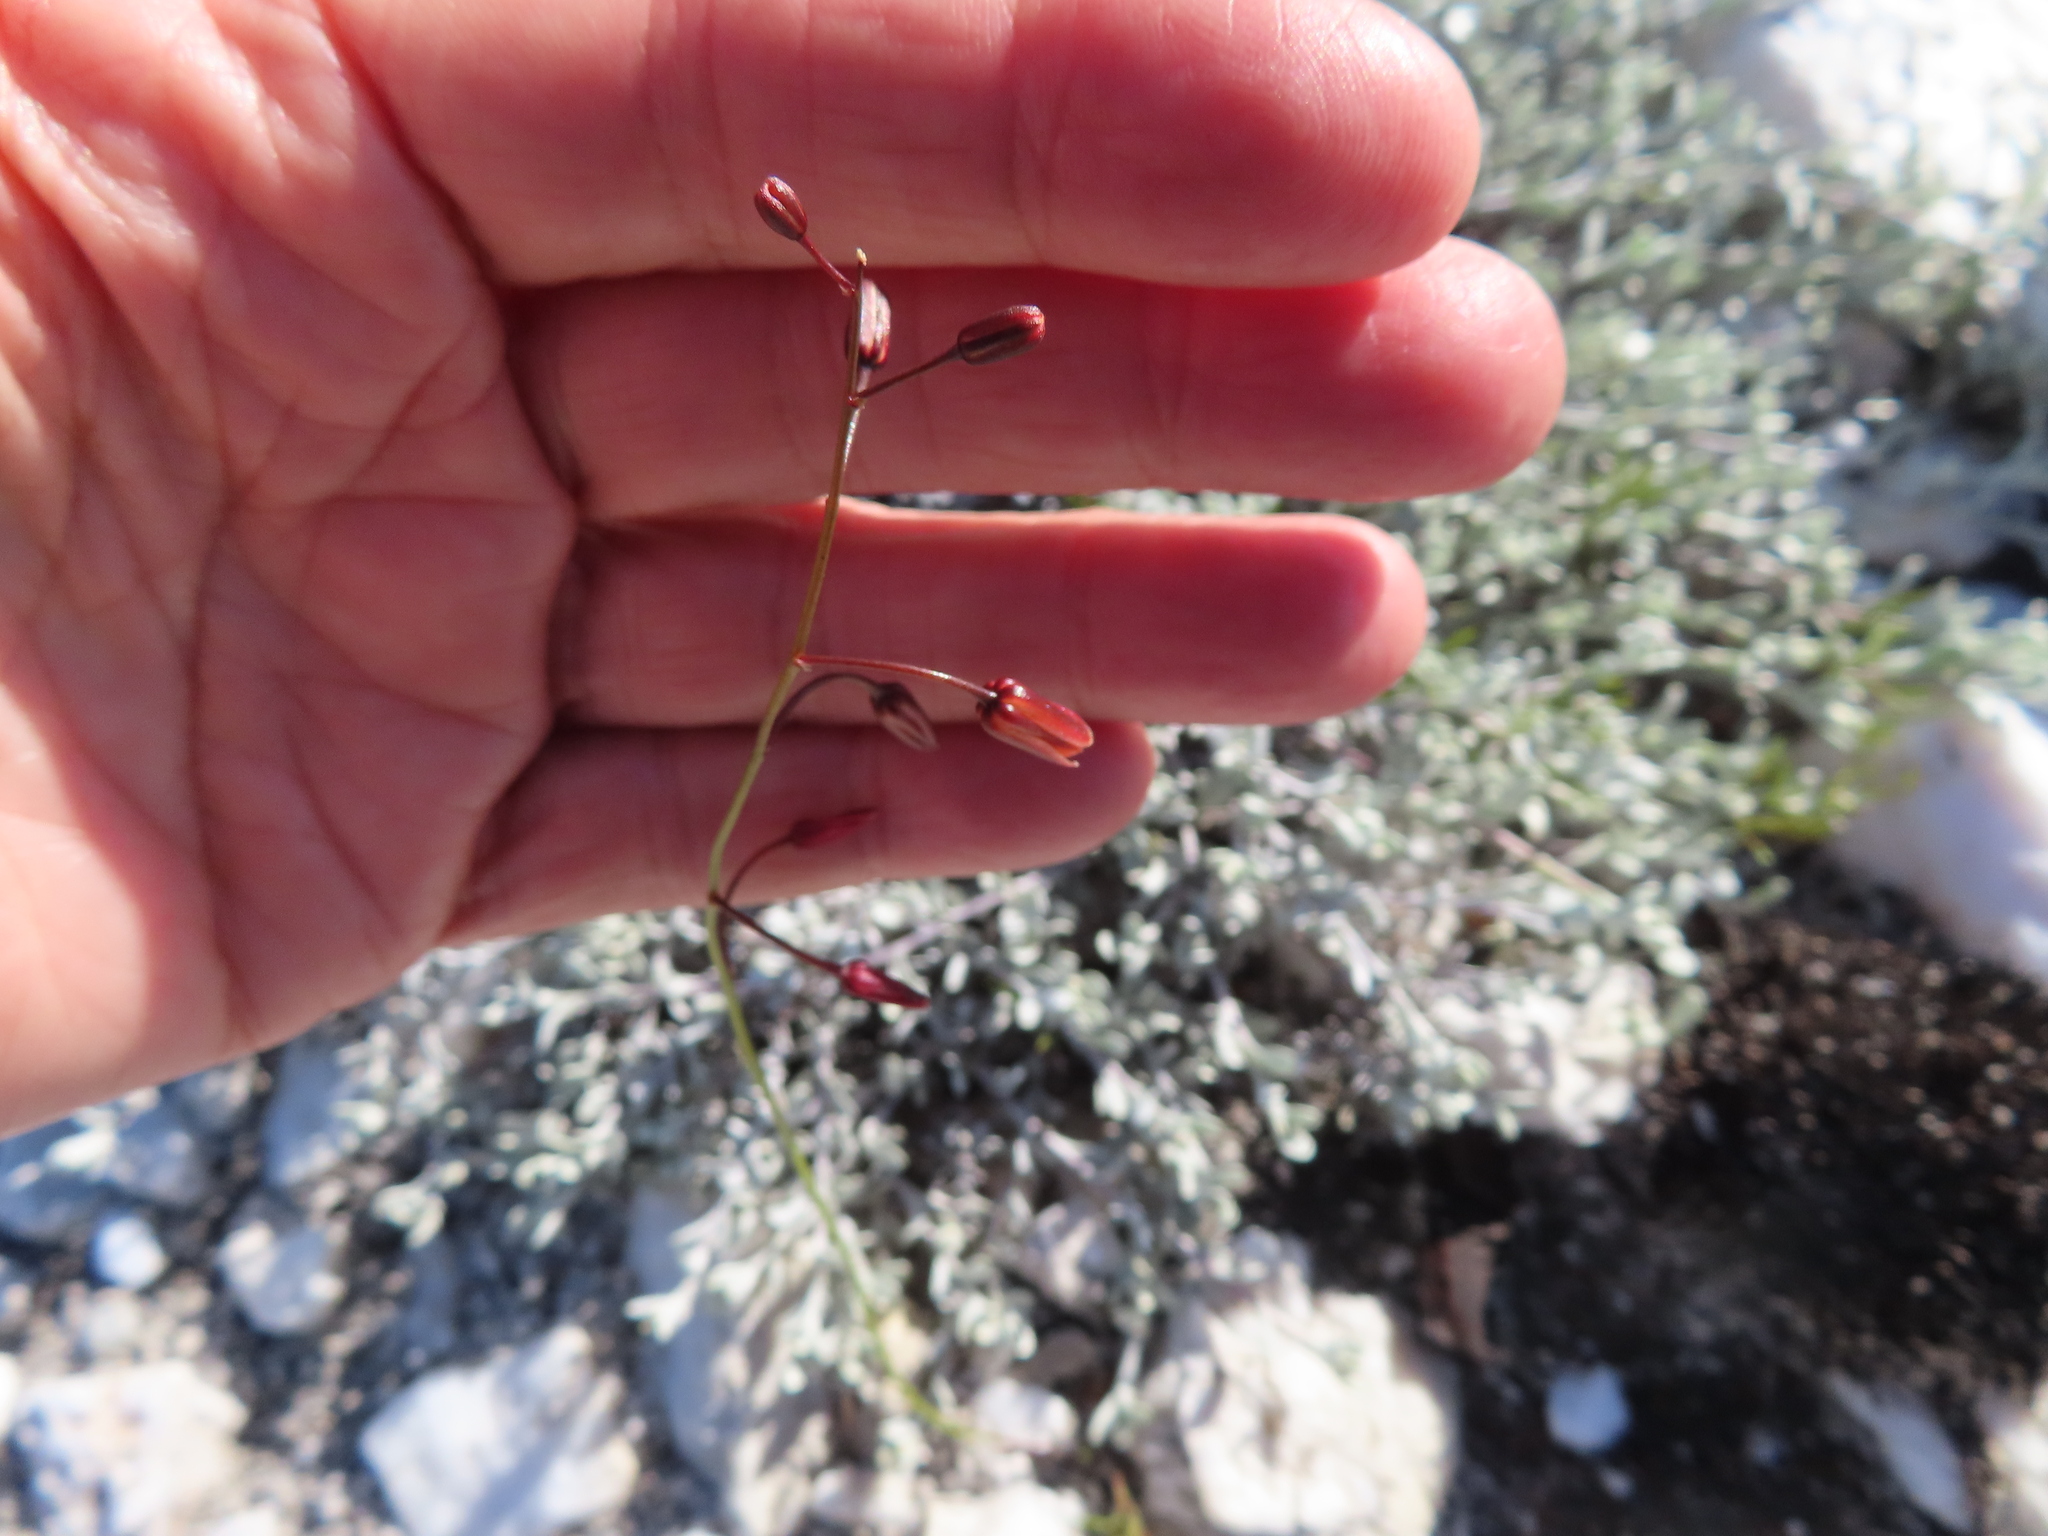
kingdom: Plantae
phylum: Tracheophyta
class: Liliopsida
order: Asparagales
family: Asparagaceae
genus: Drimia
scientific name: Drimia hesperantha
